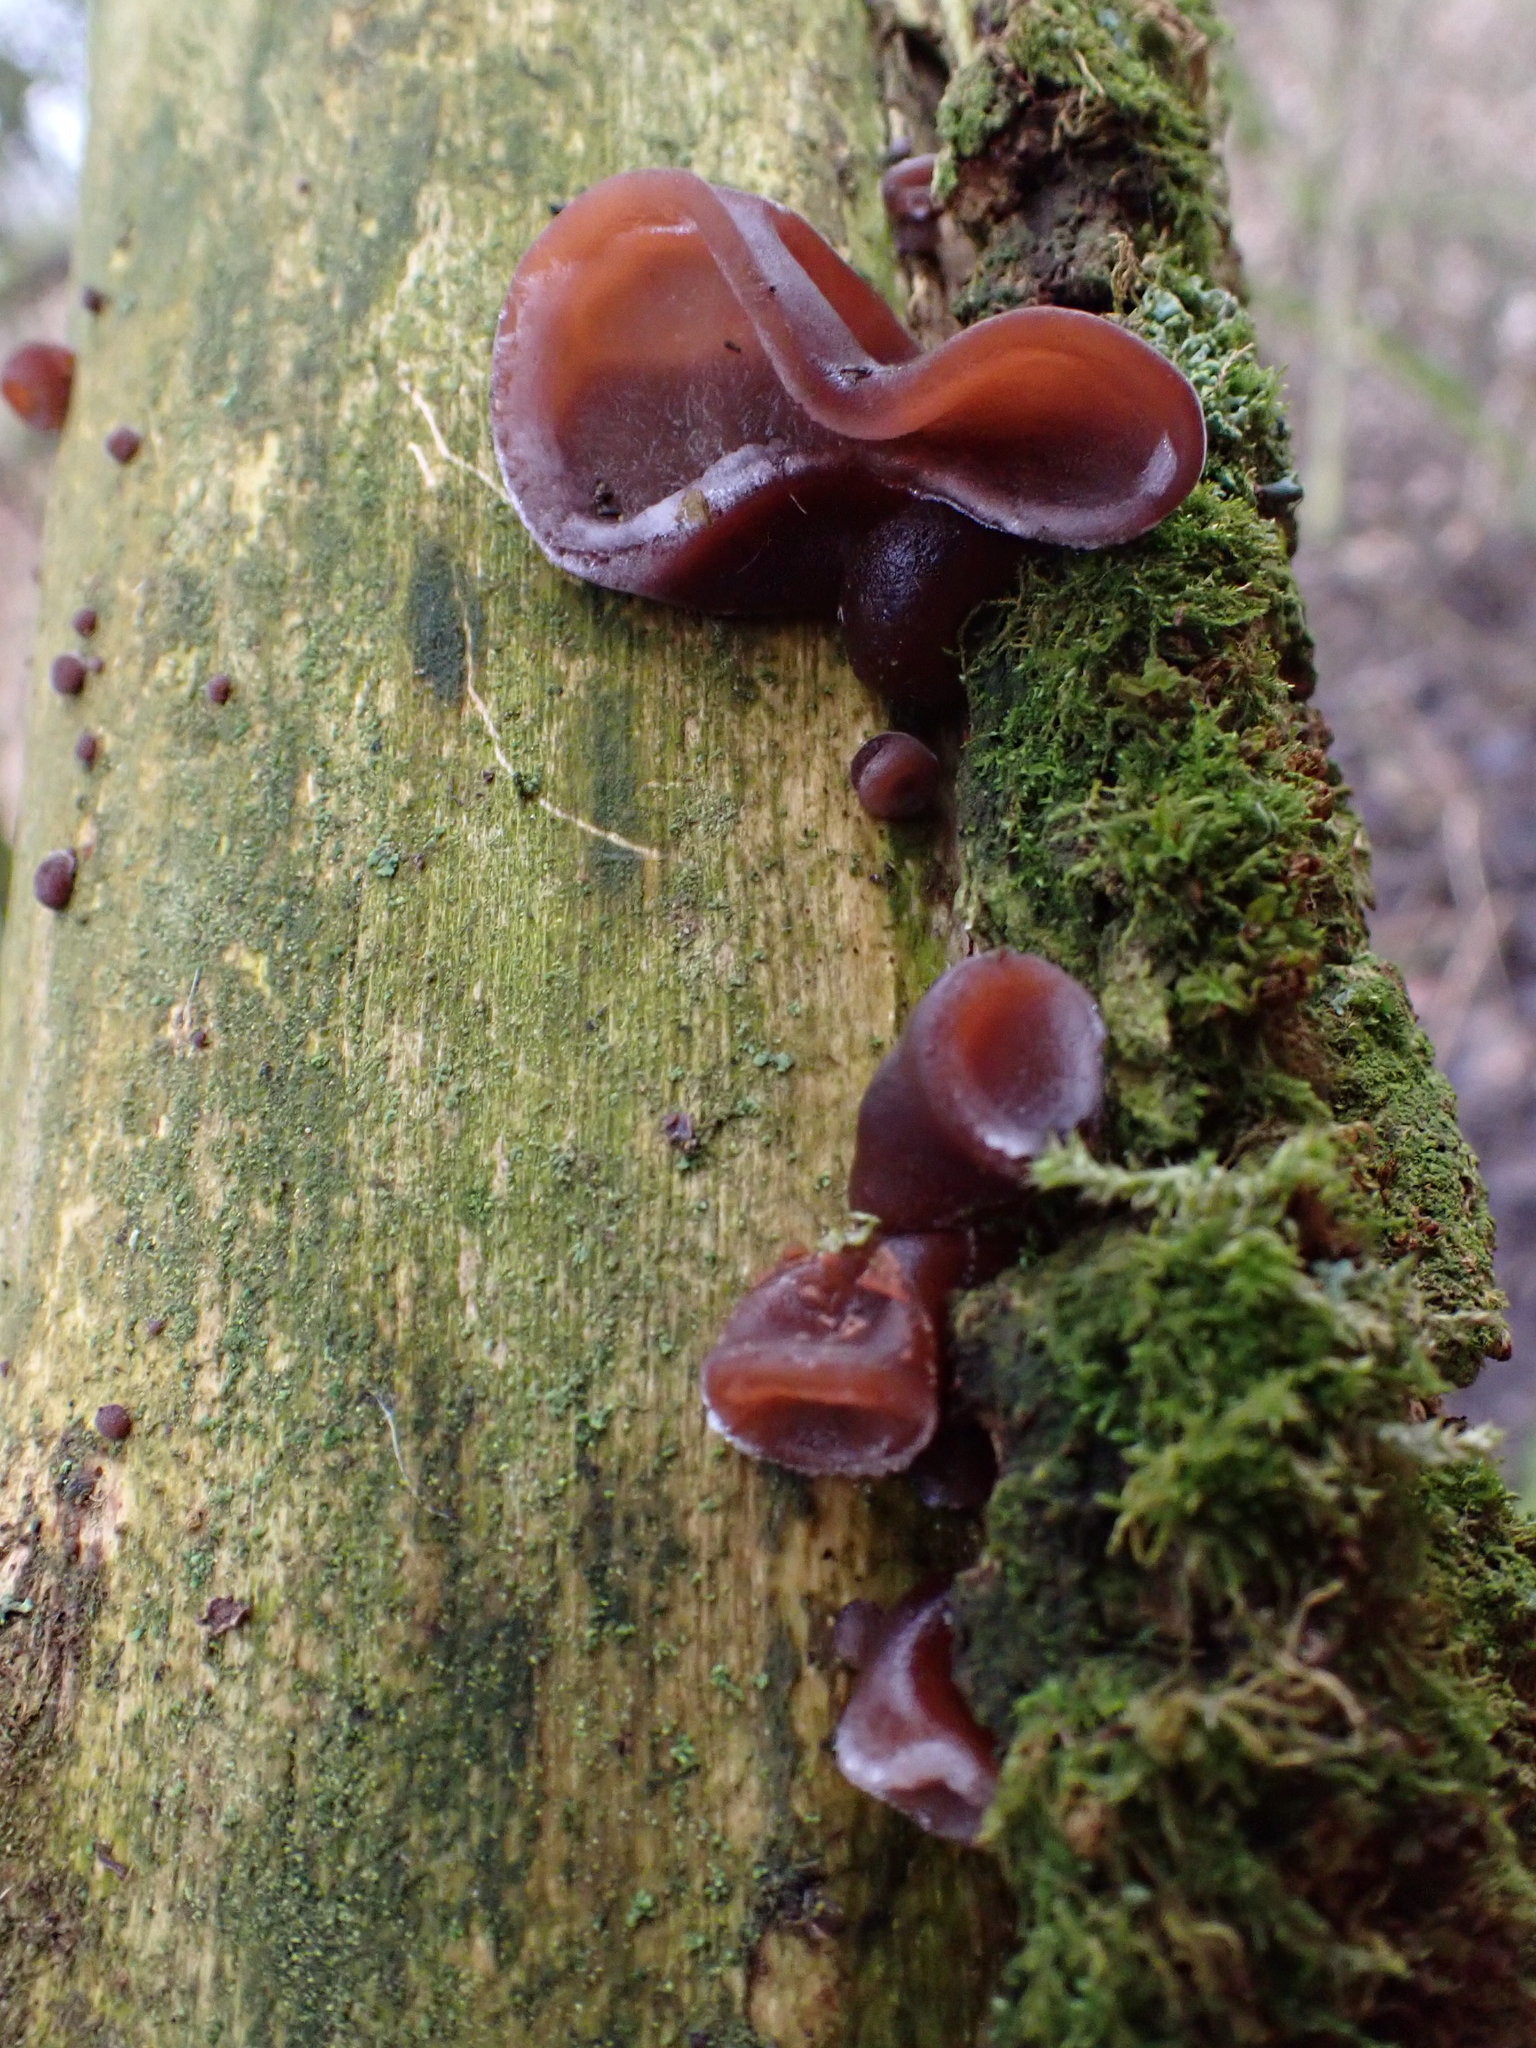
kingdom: Fungi
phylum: Basidiomycota
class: Agaricomycetes
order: Auriculariales
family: Auriculariaceae
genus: Auricularia
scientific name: Auricularia auricula-judae
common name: Jelly ear
